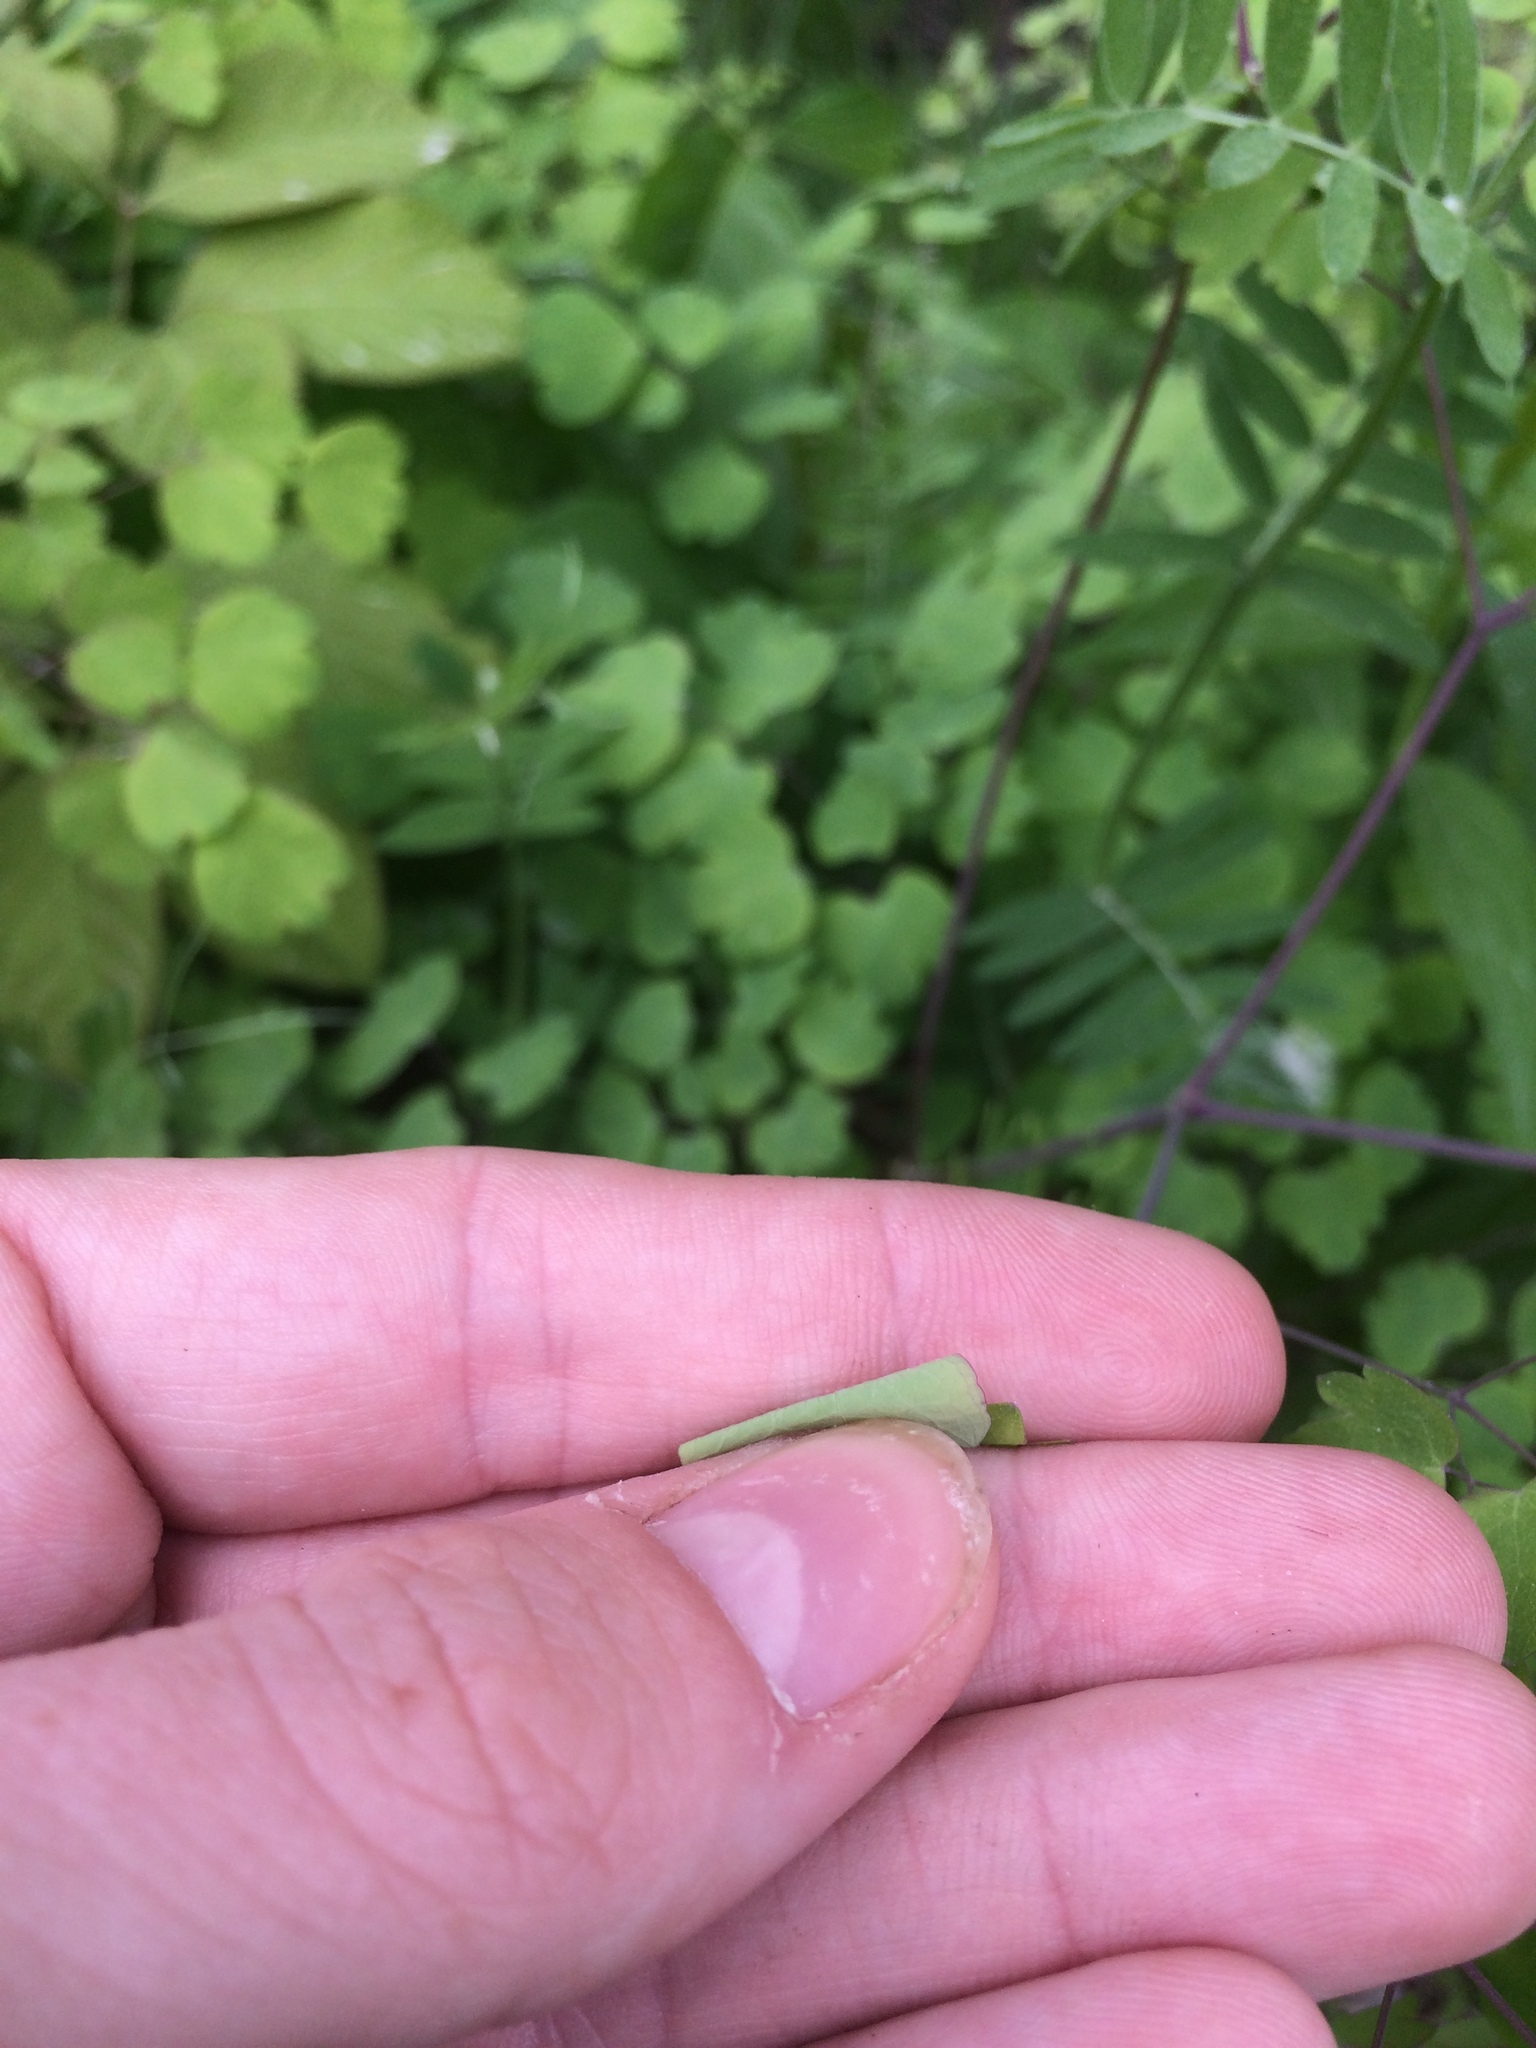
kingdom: Plantae
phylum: Tracheophyta
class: Magnoliopsida
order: Ranunculales
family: Ranunculaceae
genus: Thalictrum
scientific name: Thalictrum dioicum
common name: Early meadow-rue
